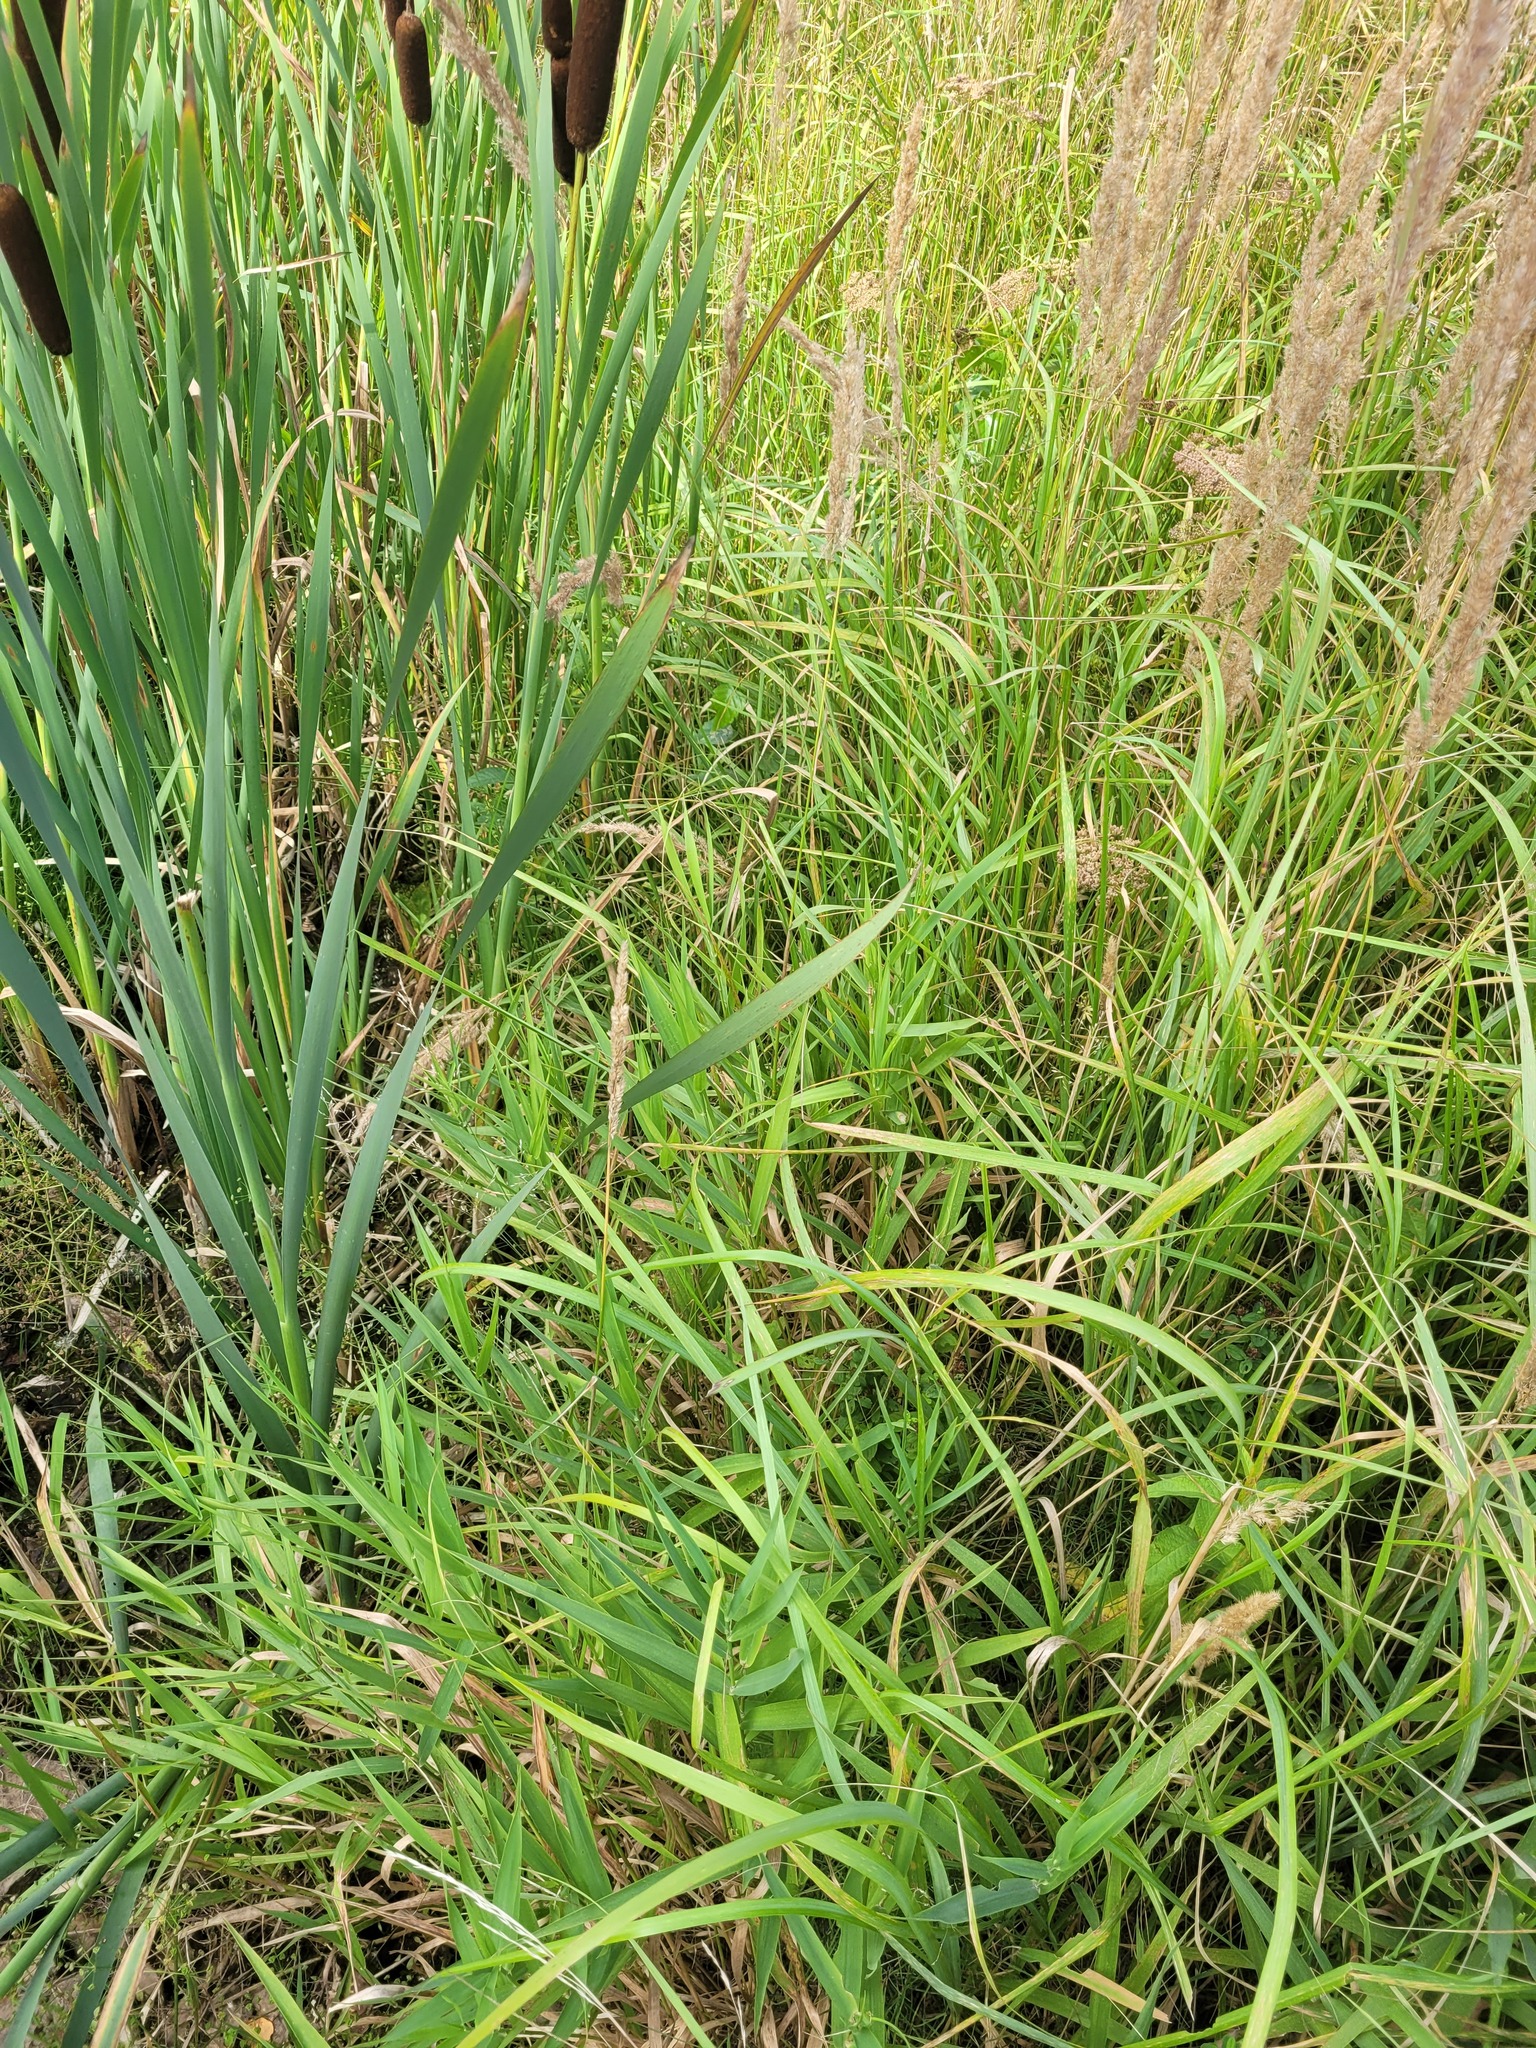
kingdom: Plantae
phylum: Tracheophyta
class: Liliopsida
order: Poales
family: Poaceae
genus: Phalaris
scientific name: Phalaris arundinacea
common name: Reed canary-grass
